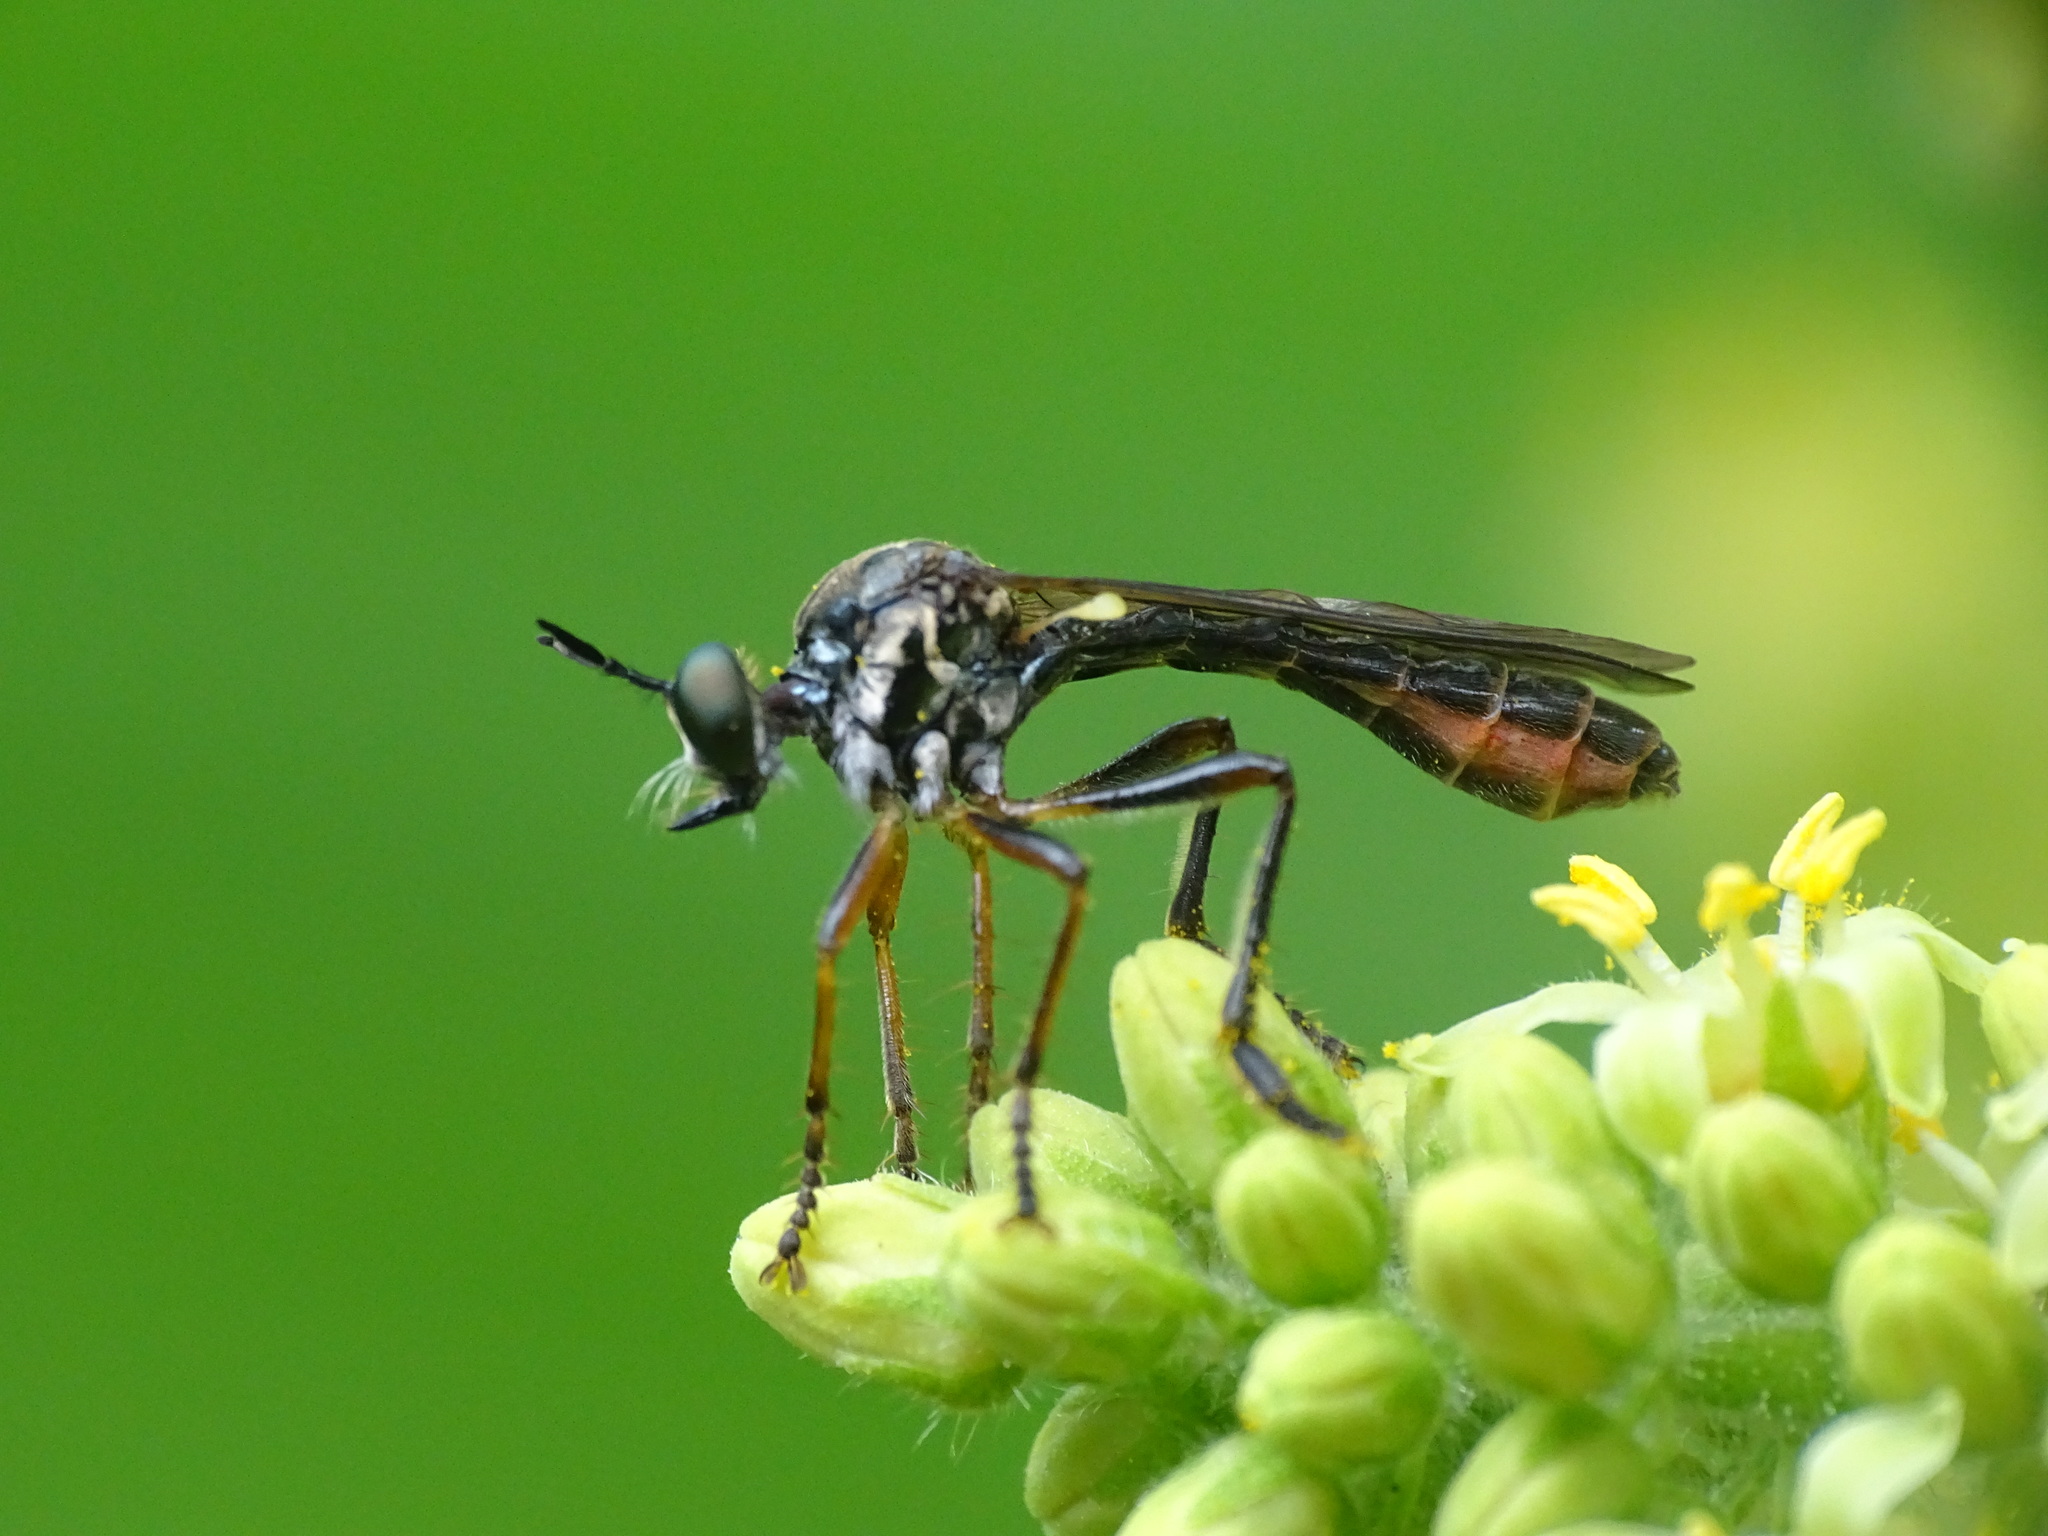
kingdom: Animalia
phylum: Arthropoda
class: Insecta
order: Diptera
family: Asilidae
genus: Dioctria
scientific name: Dioctria hyalipennis
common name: Stripe-legged robberfly
